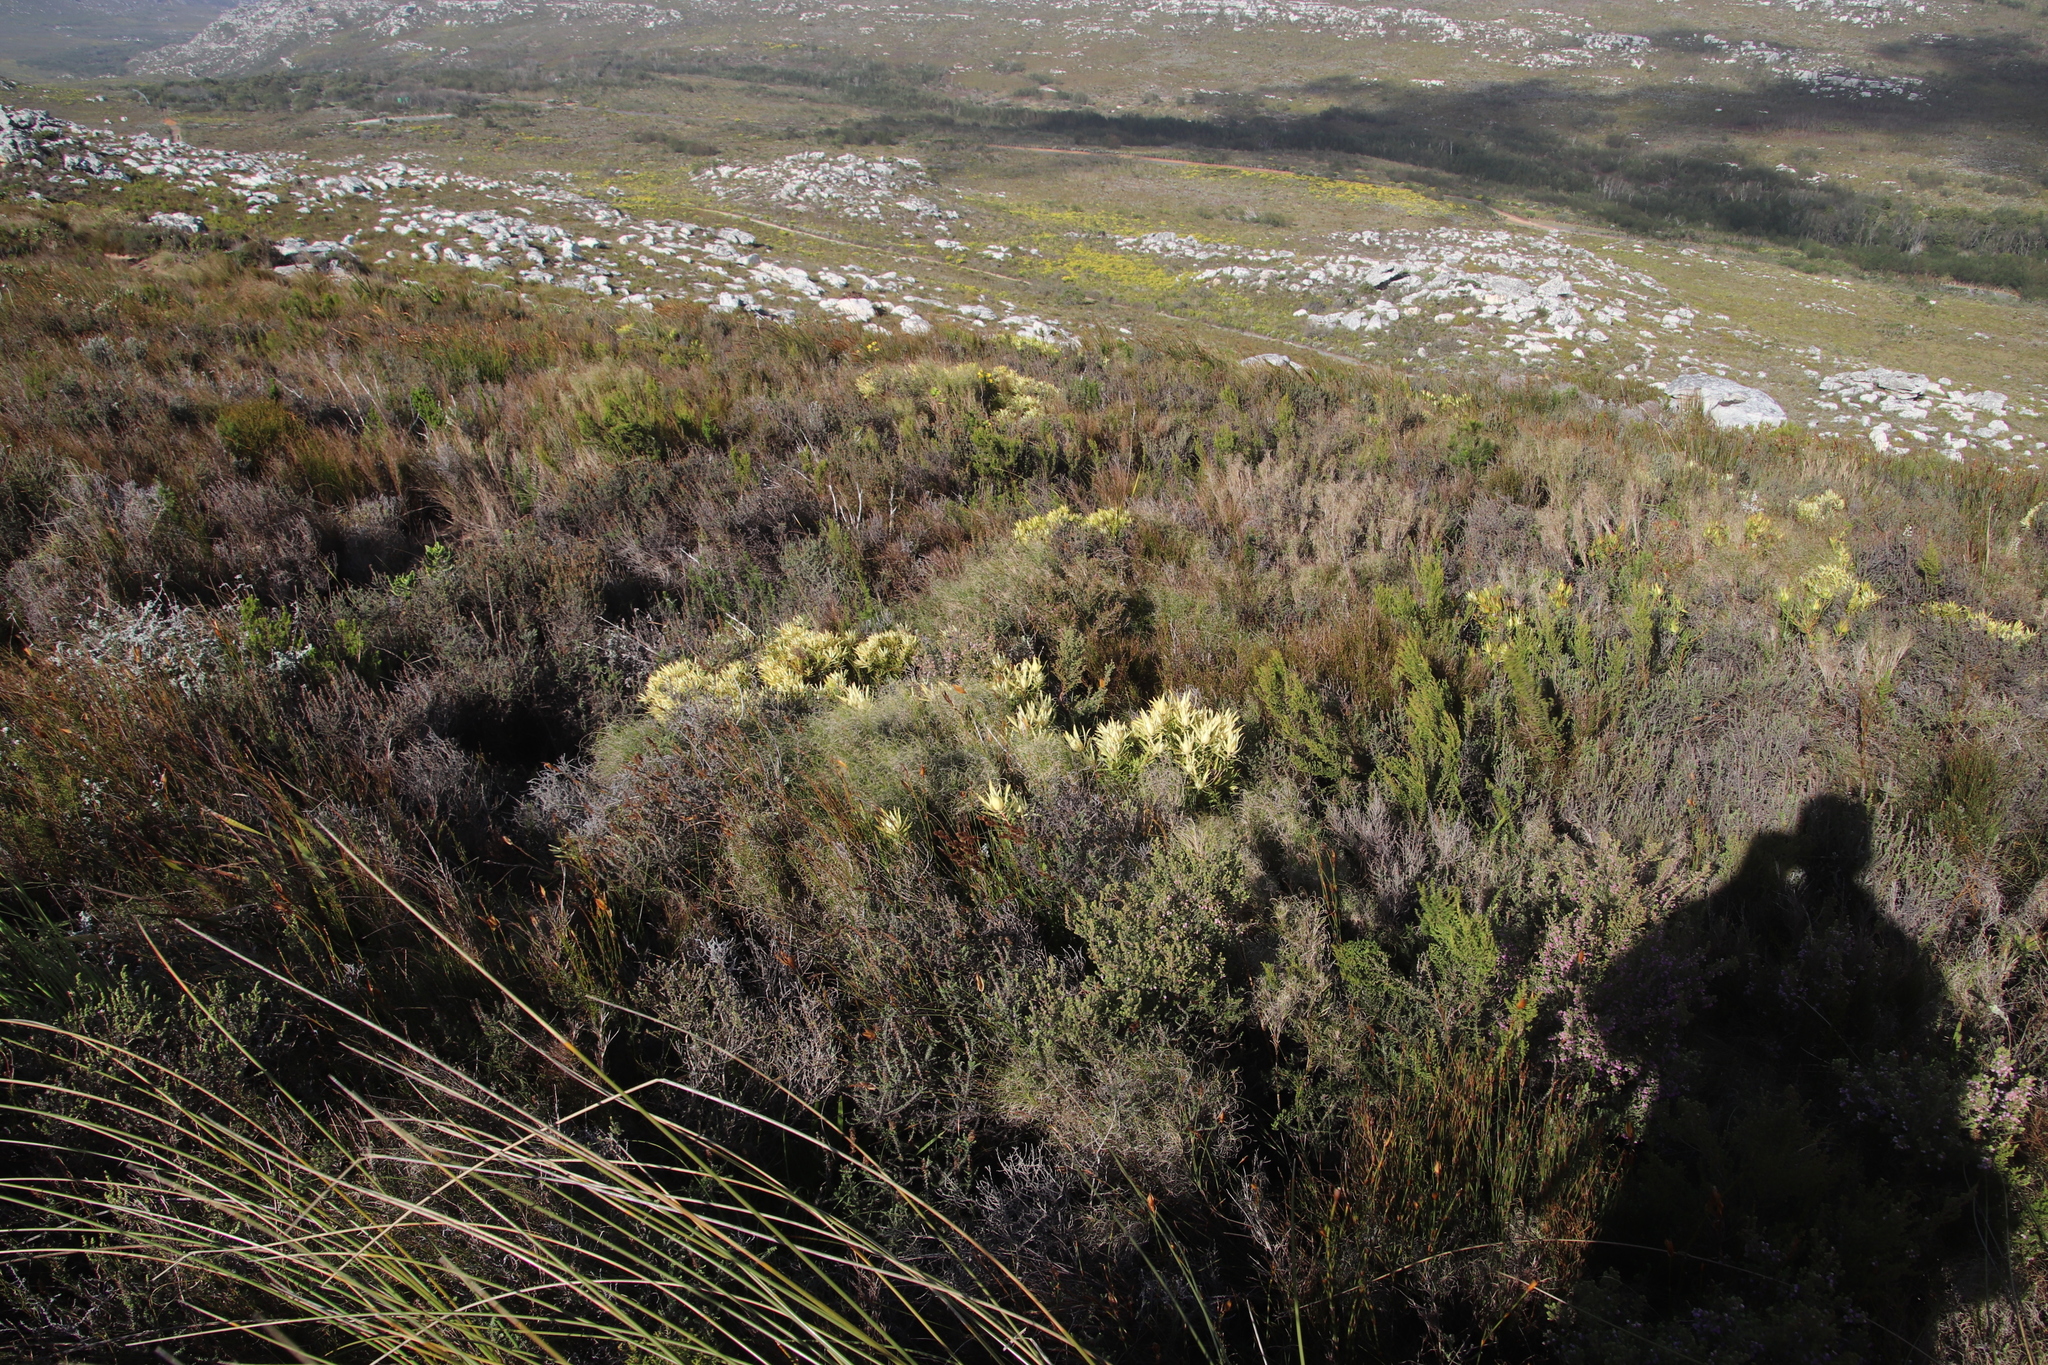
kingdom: Plantae
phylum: Tracheophyta
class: Magnoliopsida
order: Proteales
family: Proteaceae
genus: Leucadendron
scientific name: Leucadendron salignum
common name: Common sunshine conebush
